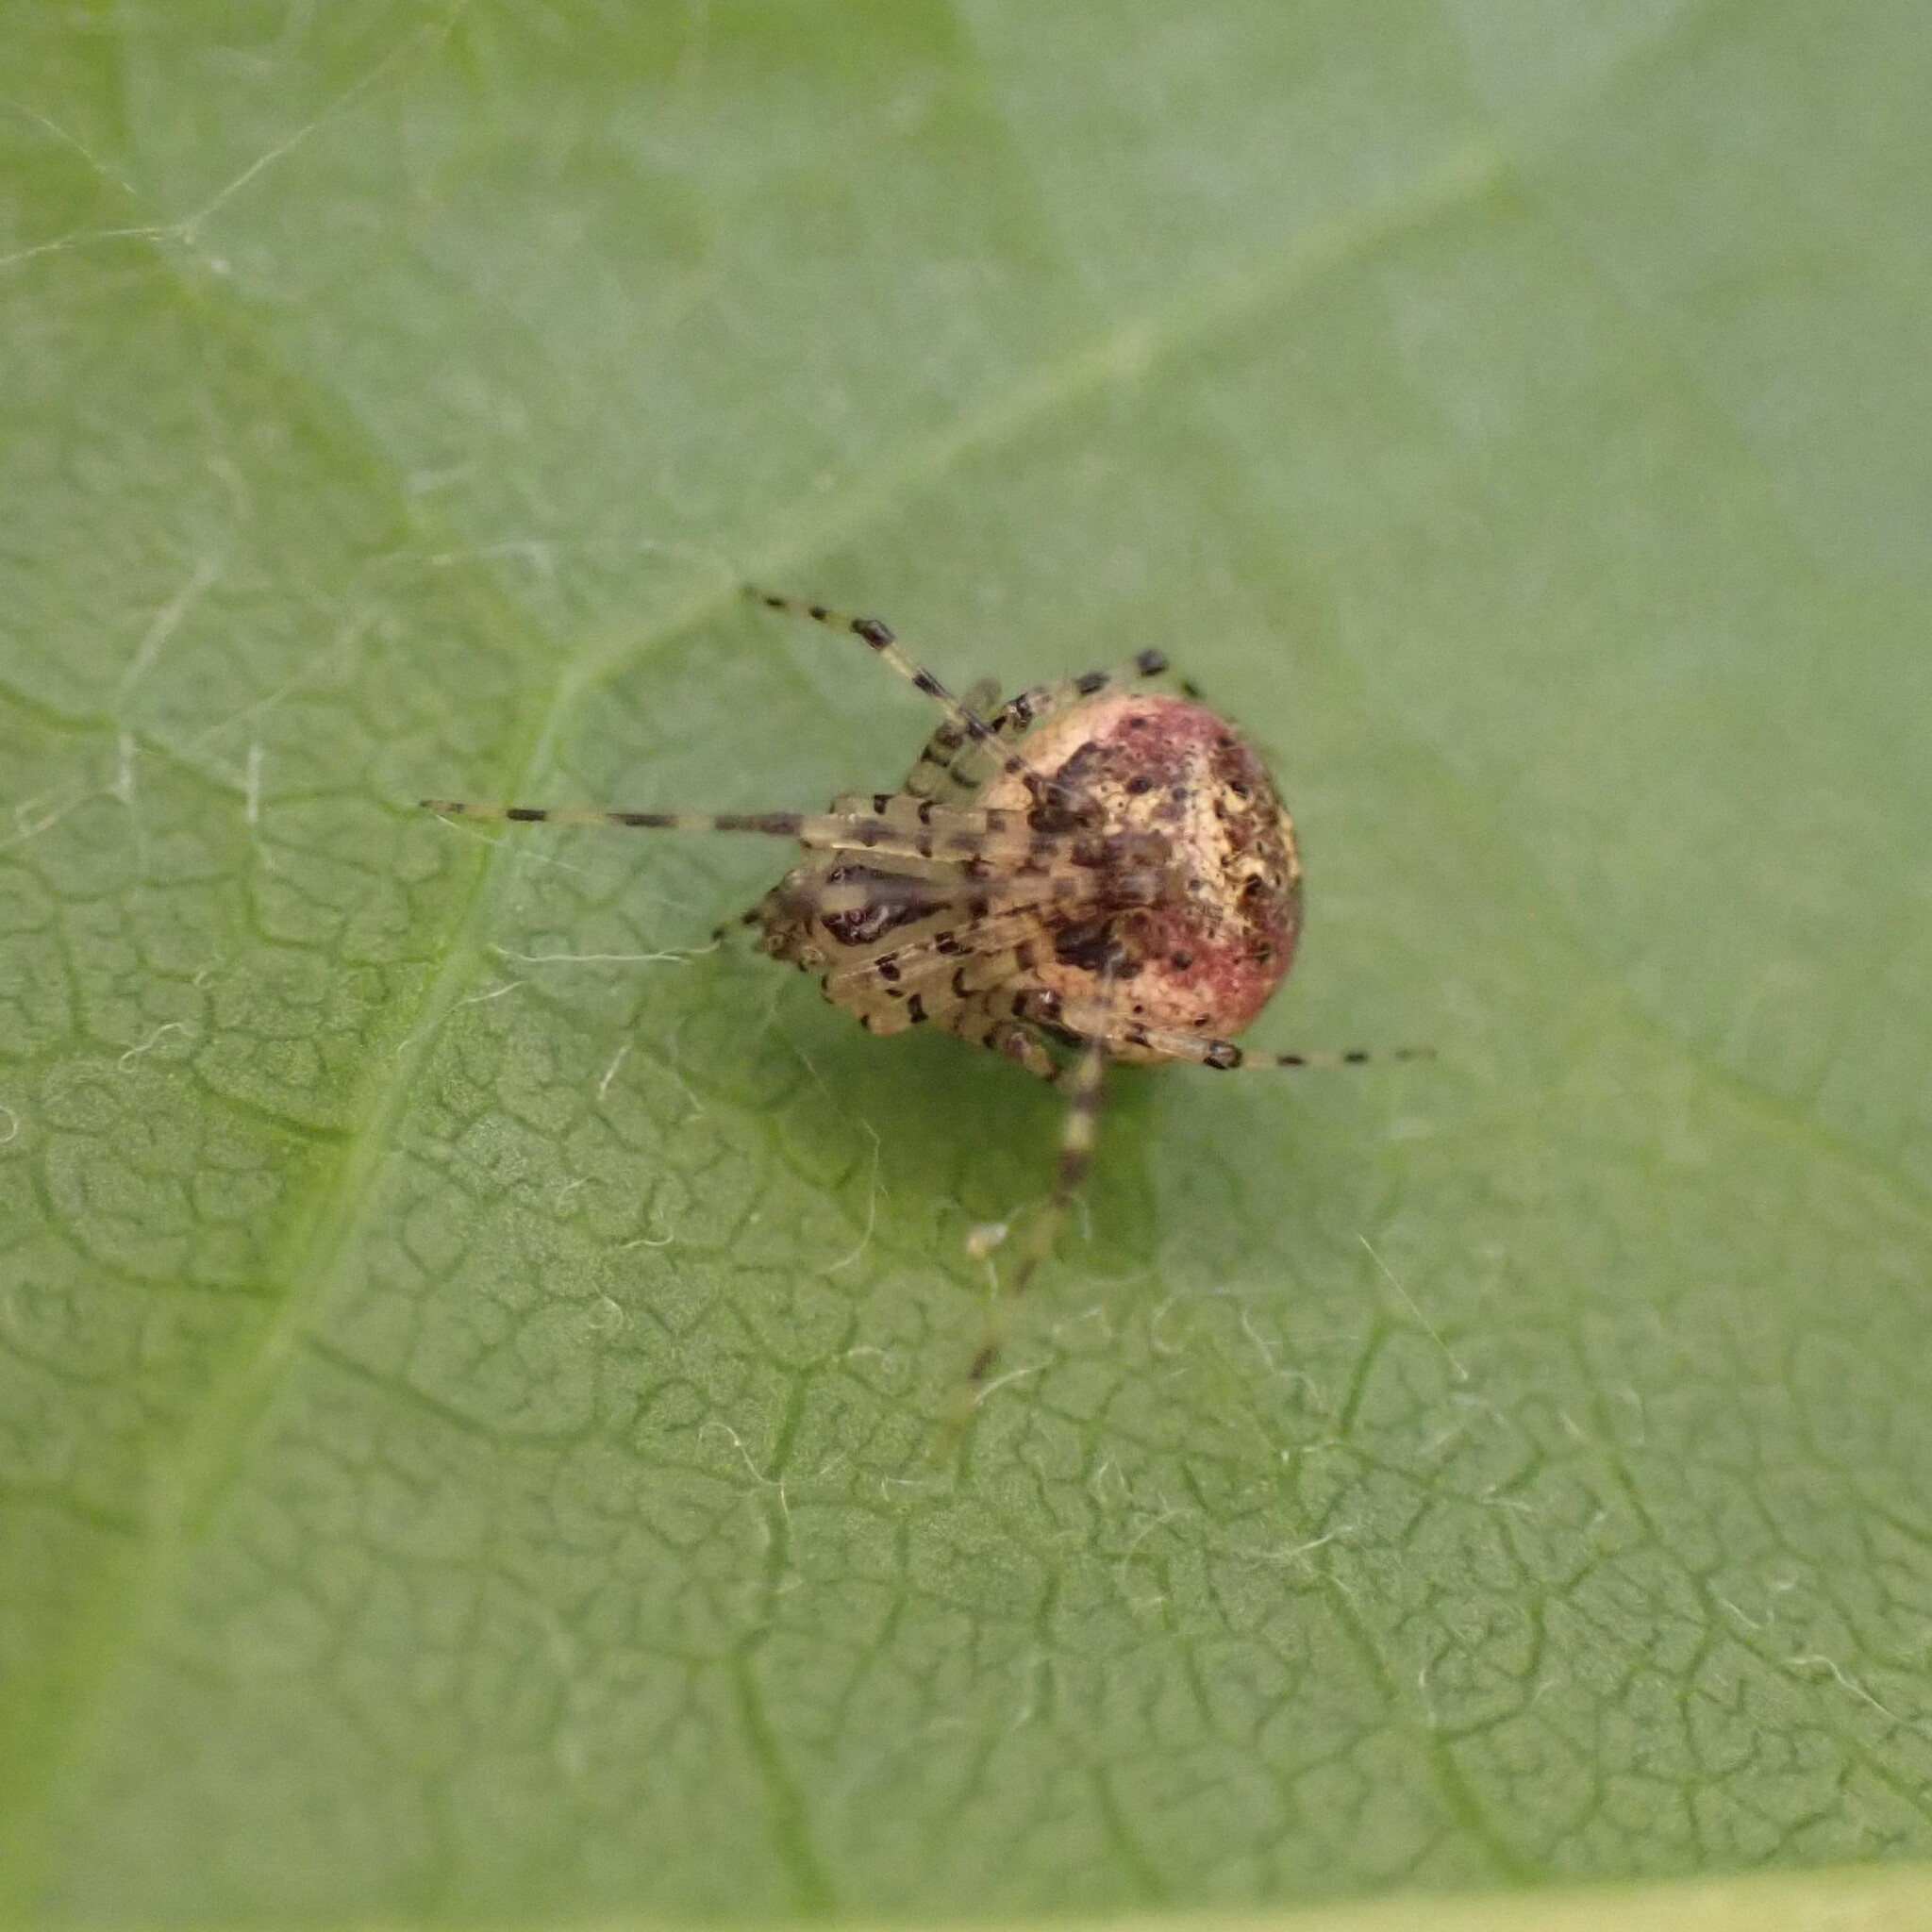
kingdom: Animalia
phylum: Arthropoda
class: Arachnida
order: Araneae
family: Theridiidae
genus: Platnickina
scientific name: Platnickina tincta
